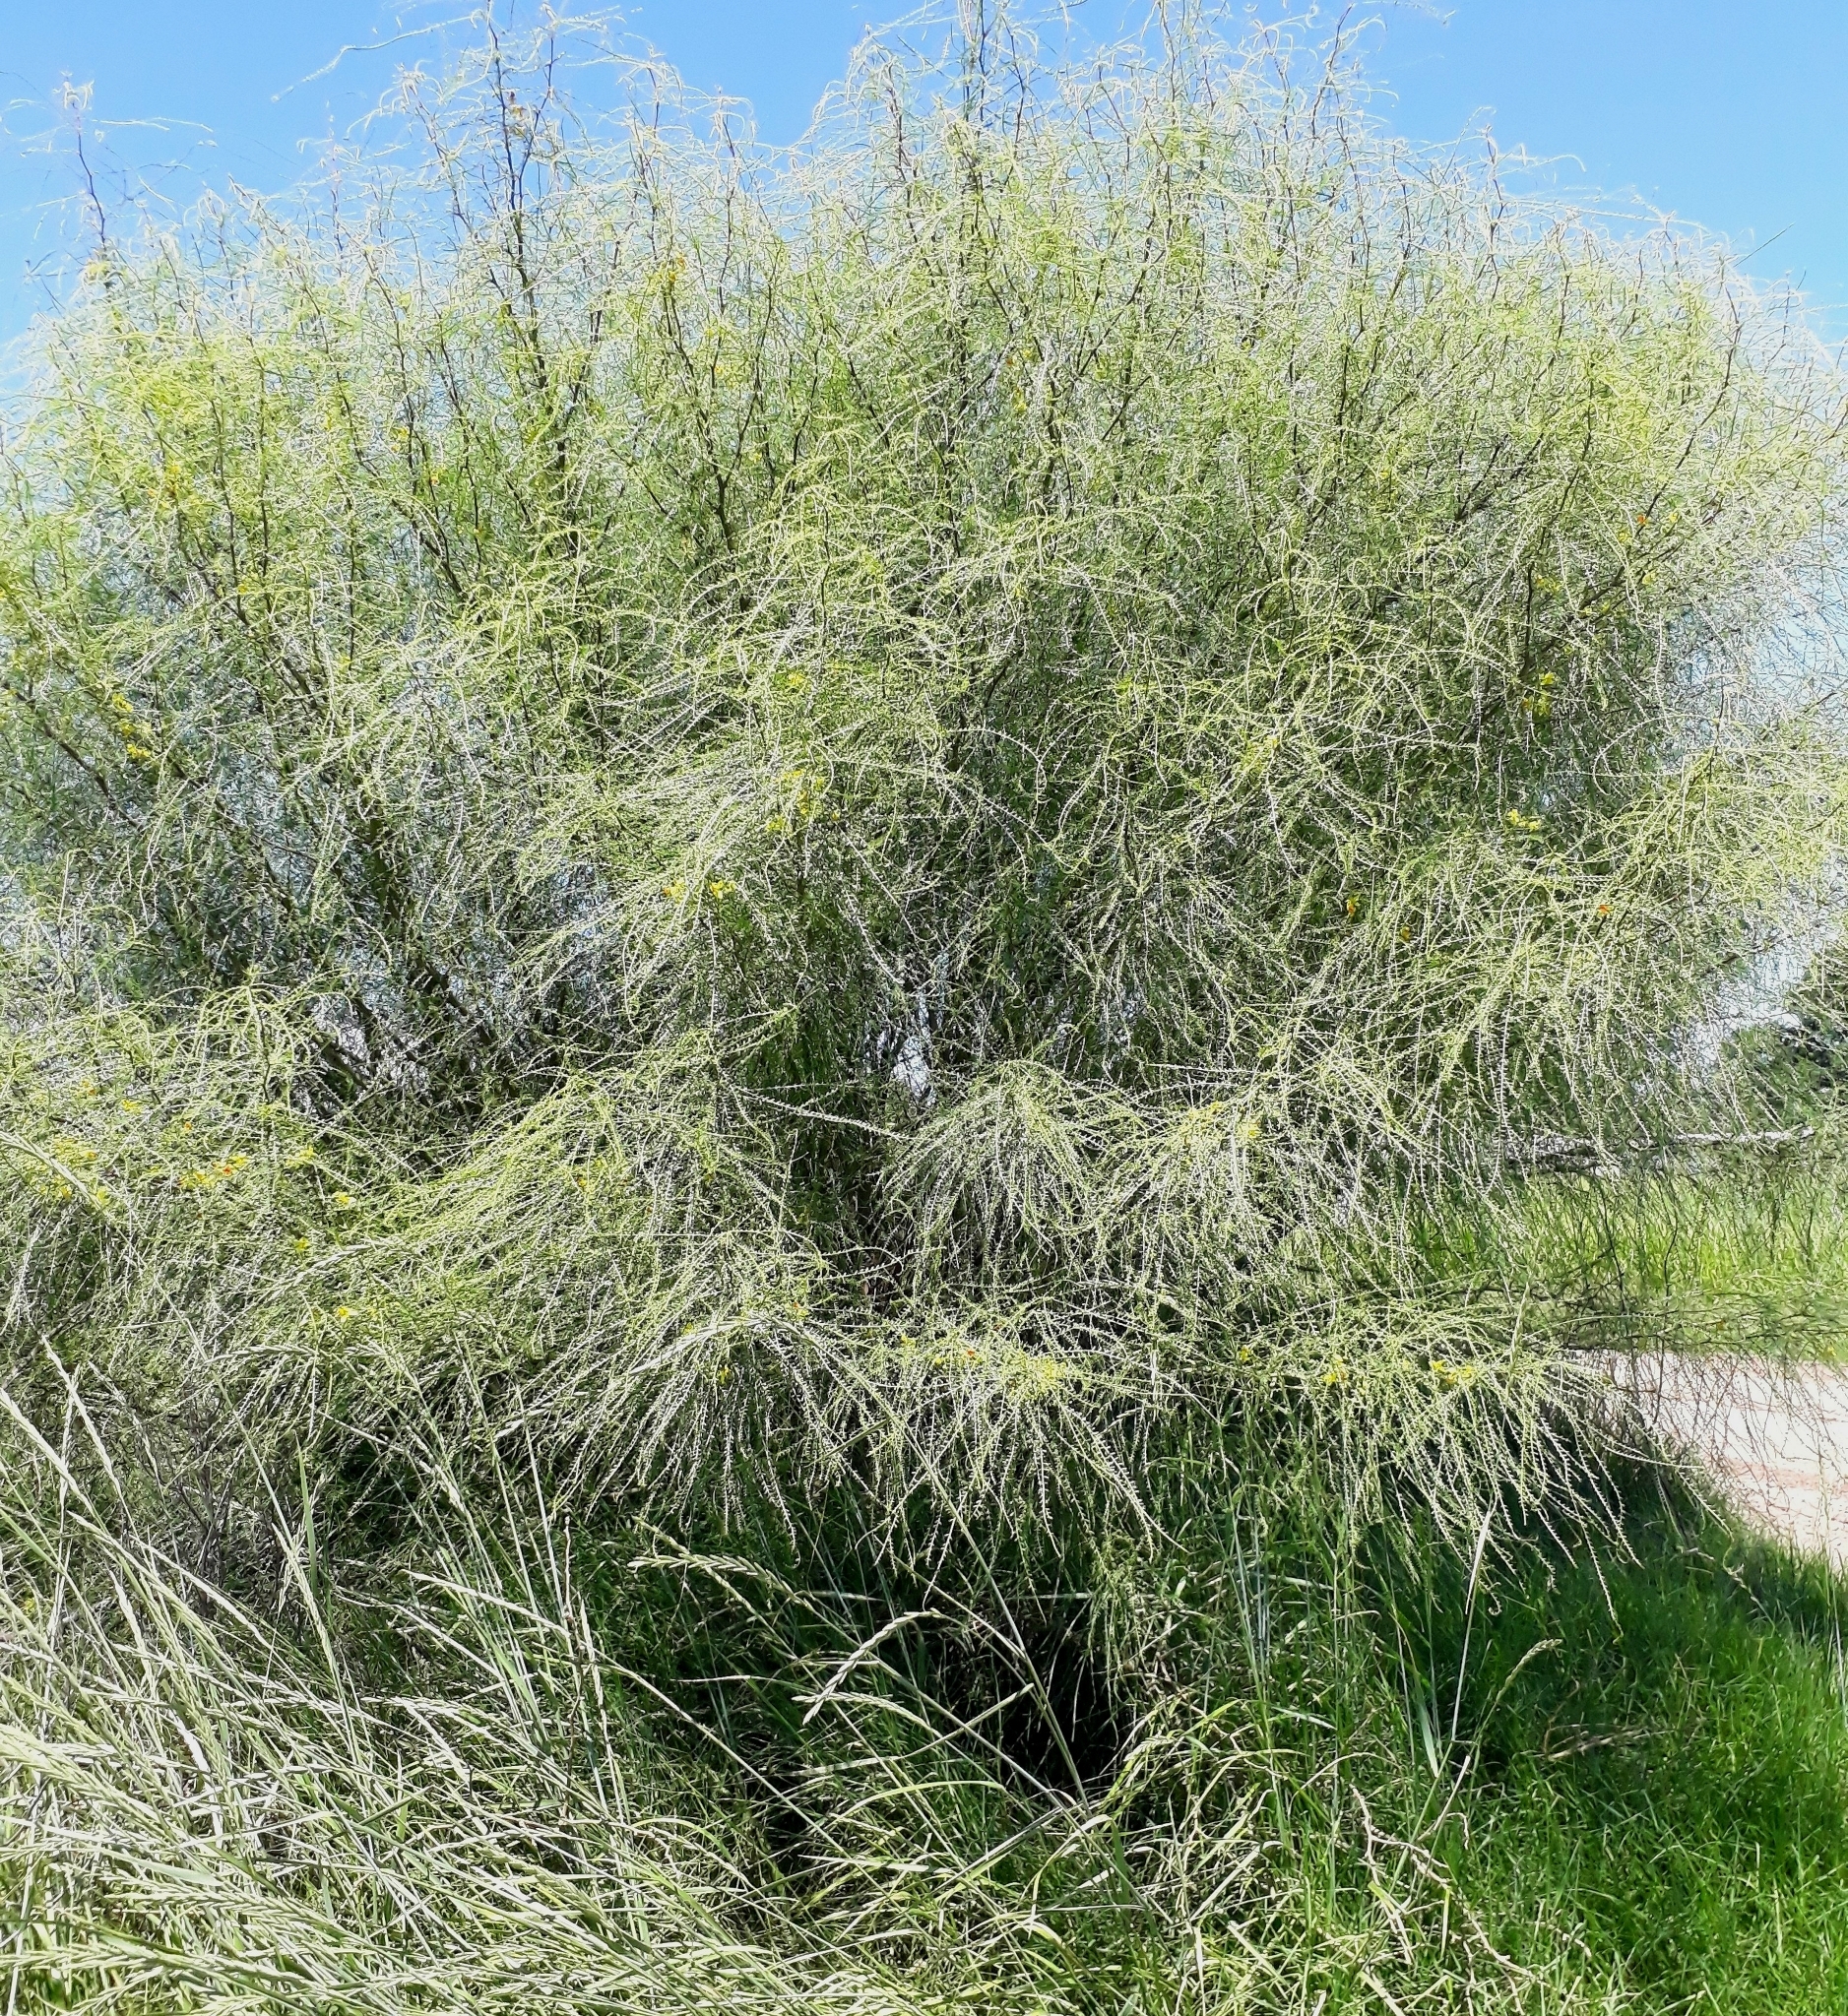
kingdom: Plantae
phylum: Tracheophyta
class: Magnoliopsida
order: Fabales
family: Fabaceae
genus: Parkinsonia
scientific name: Parkinsonia aculeata
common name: Jerusalem thorn
